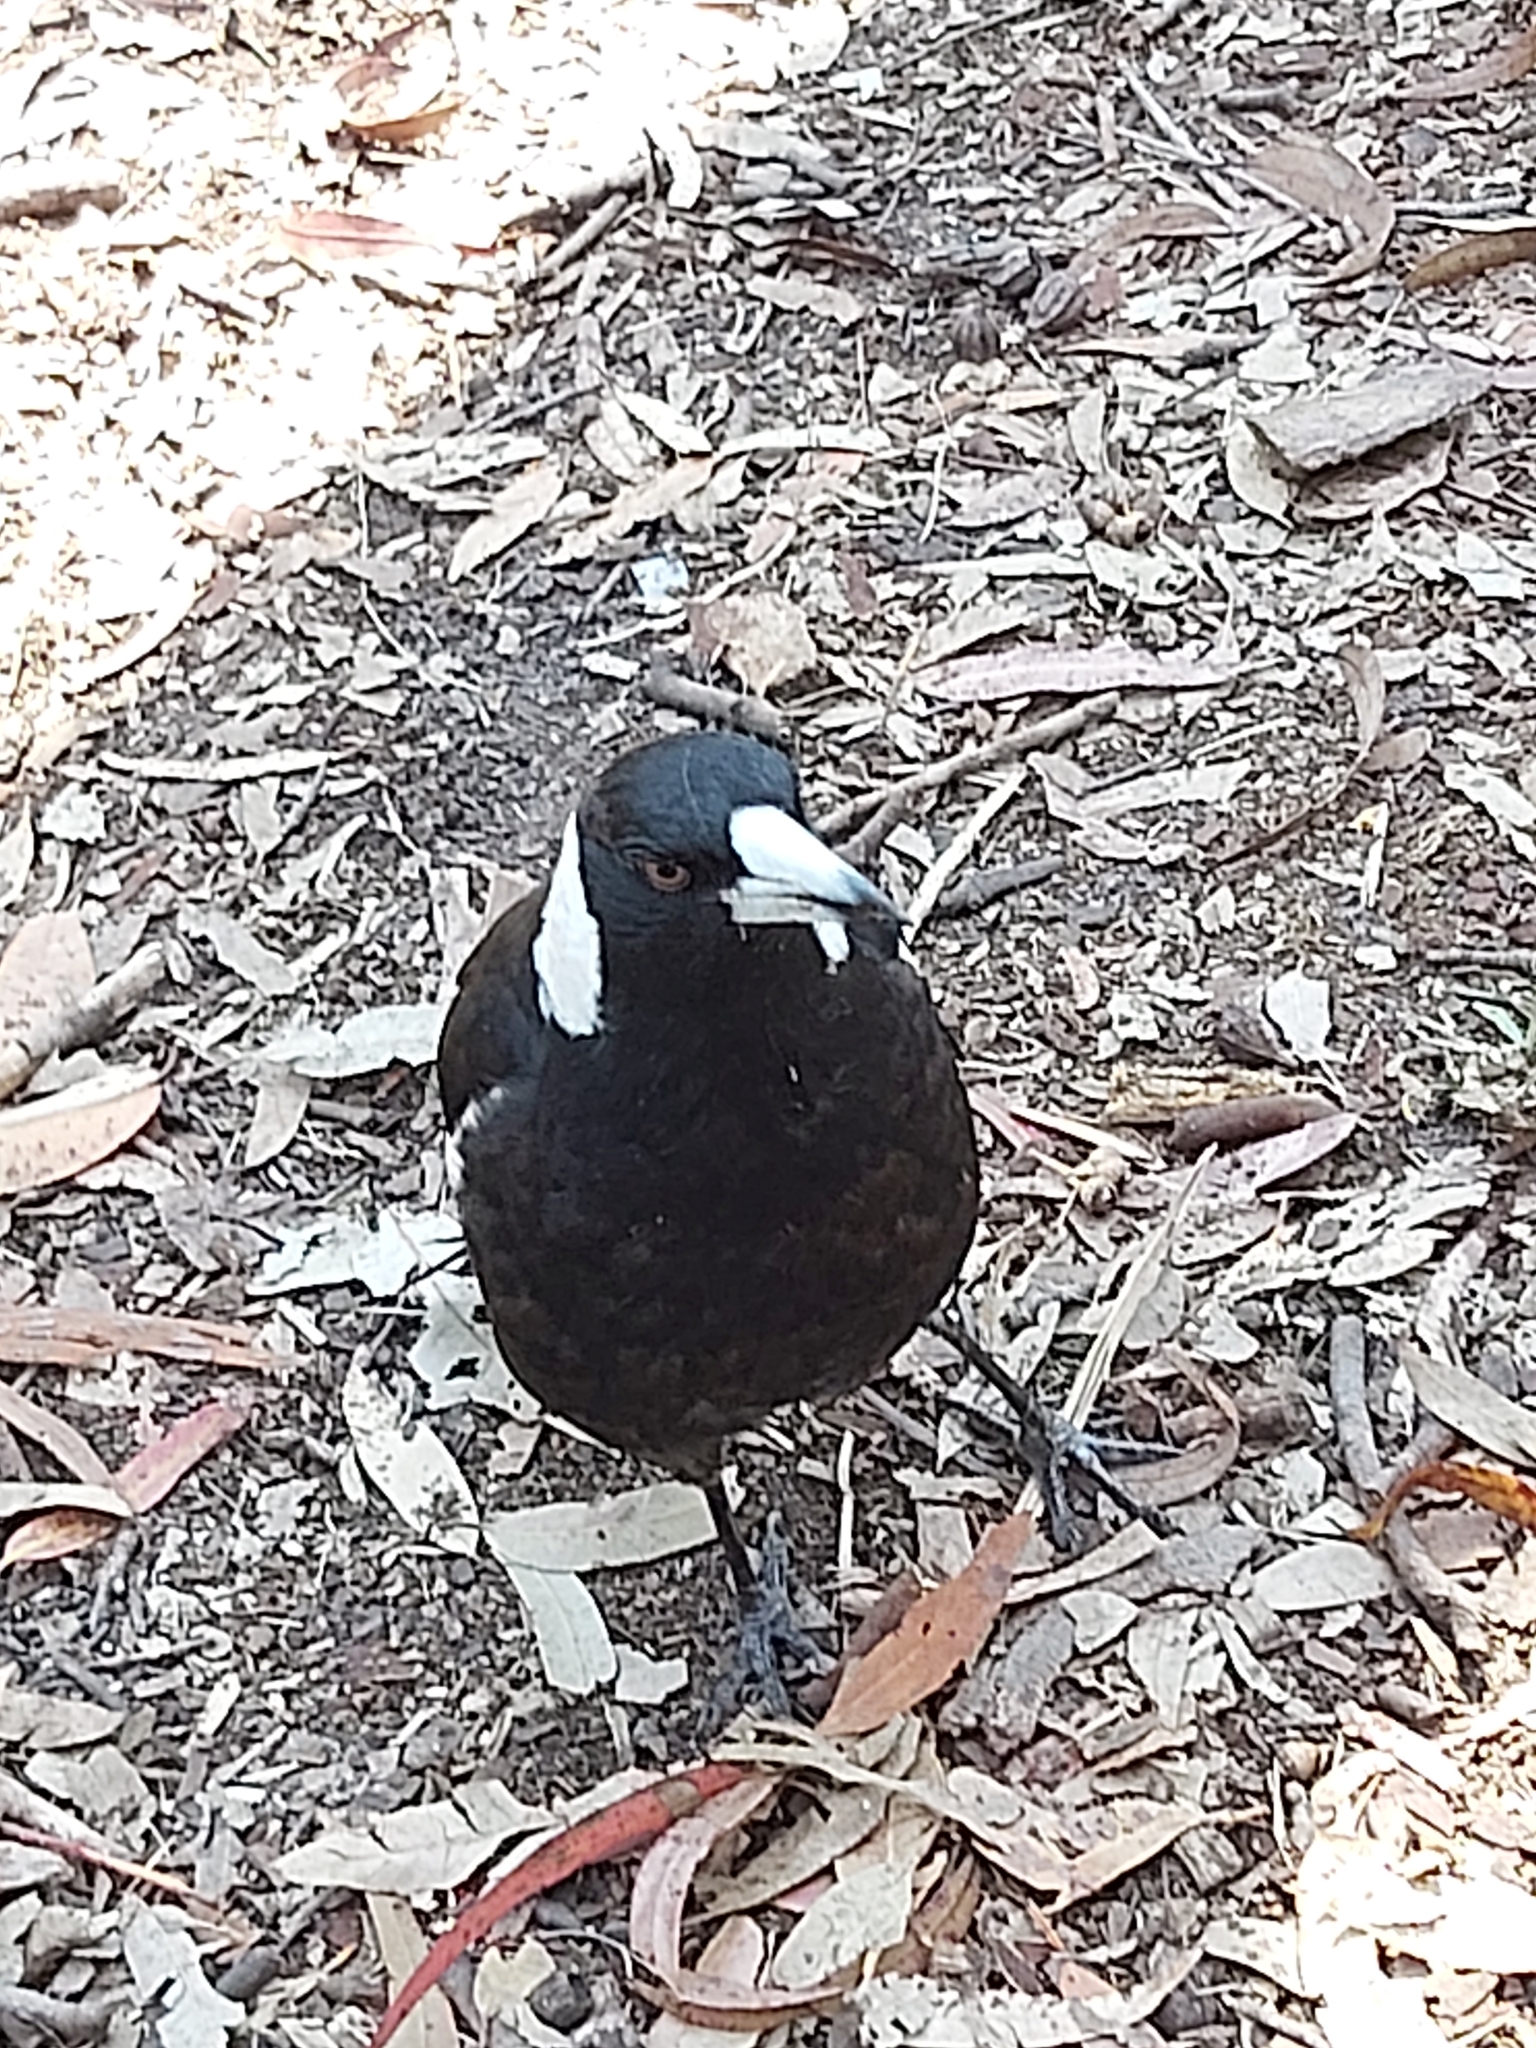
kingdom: Animalia
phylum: Chordata
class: Aves
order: Passeriformes
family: Cracticidae
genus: Gymnorhina
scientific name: Gymnorhina tibicen
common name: Australian magpie
